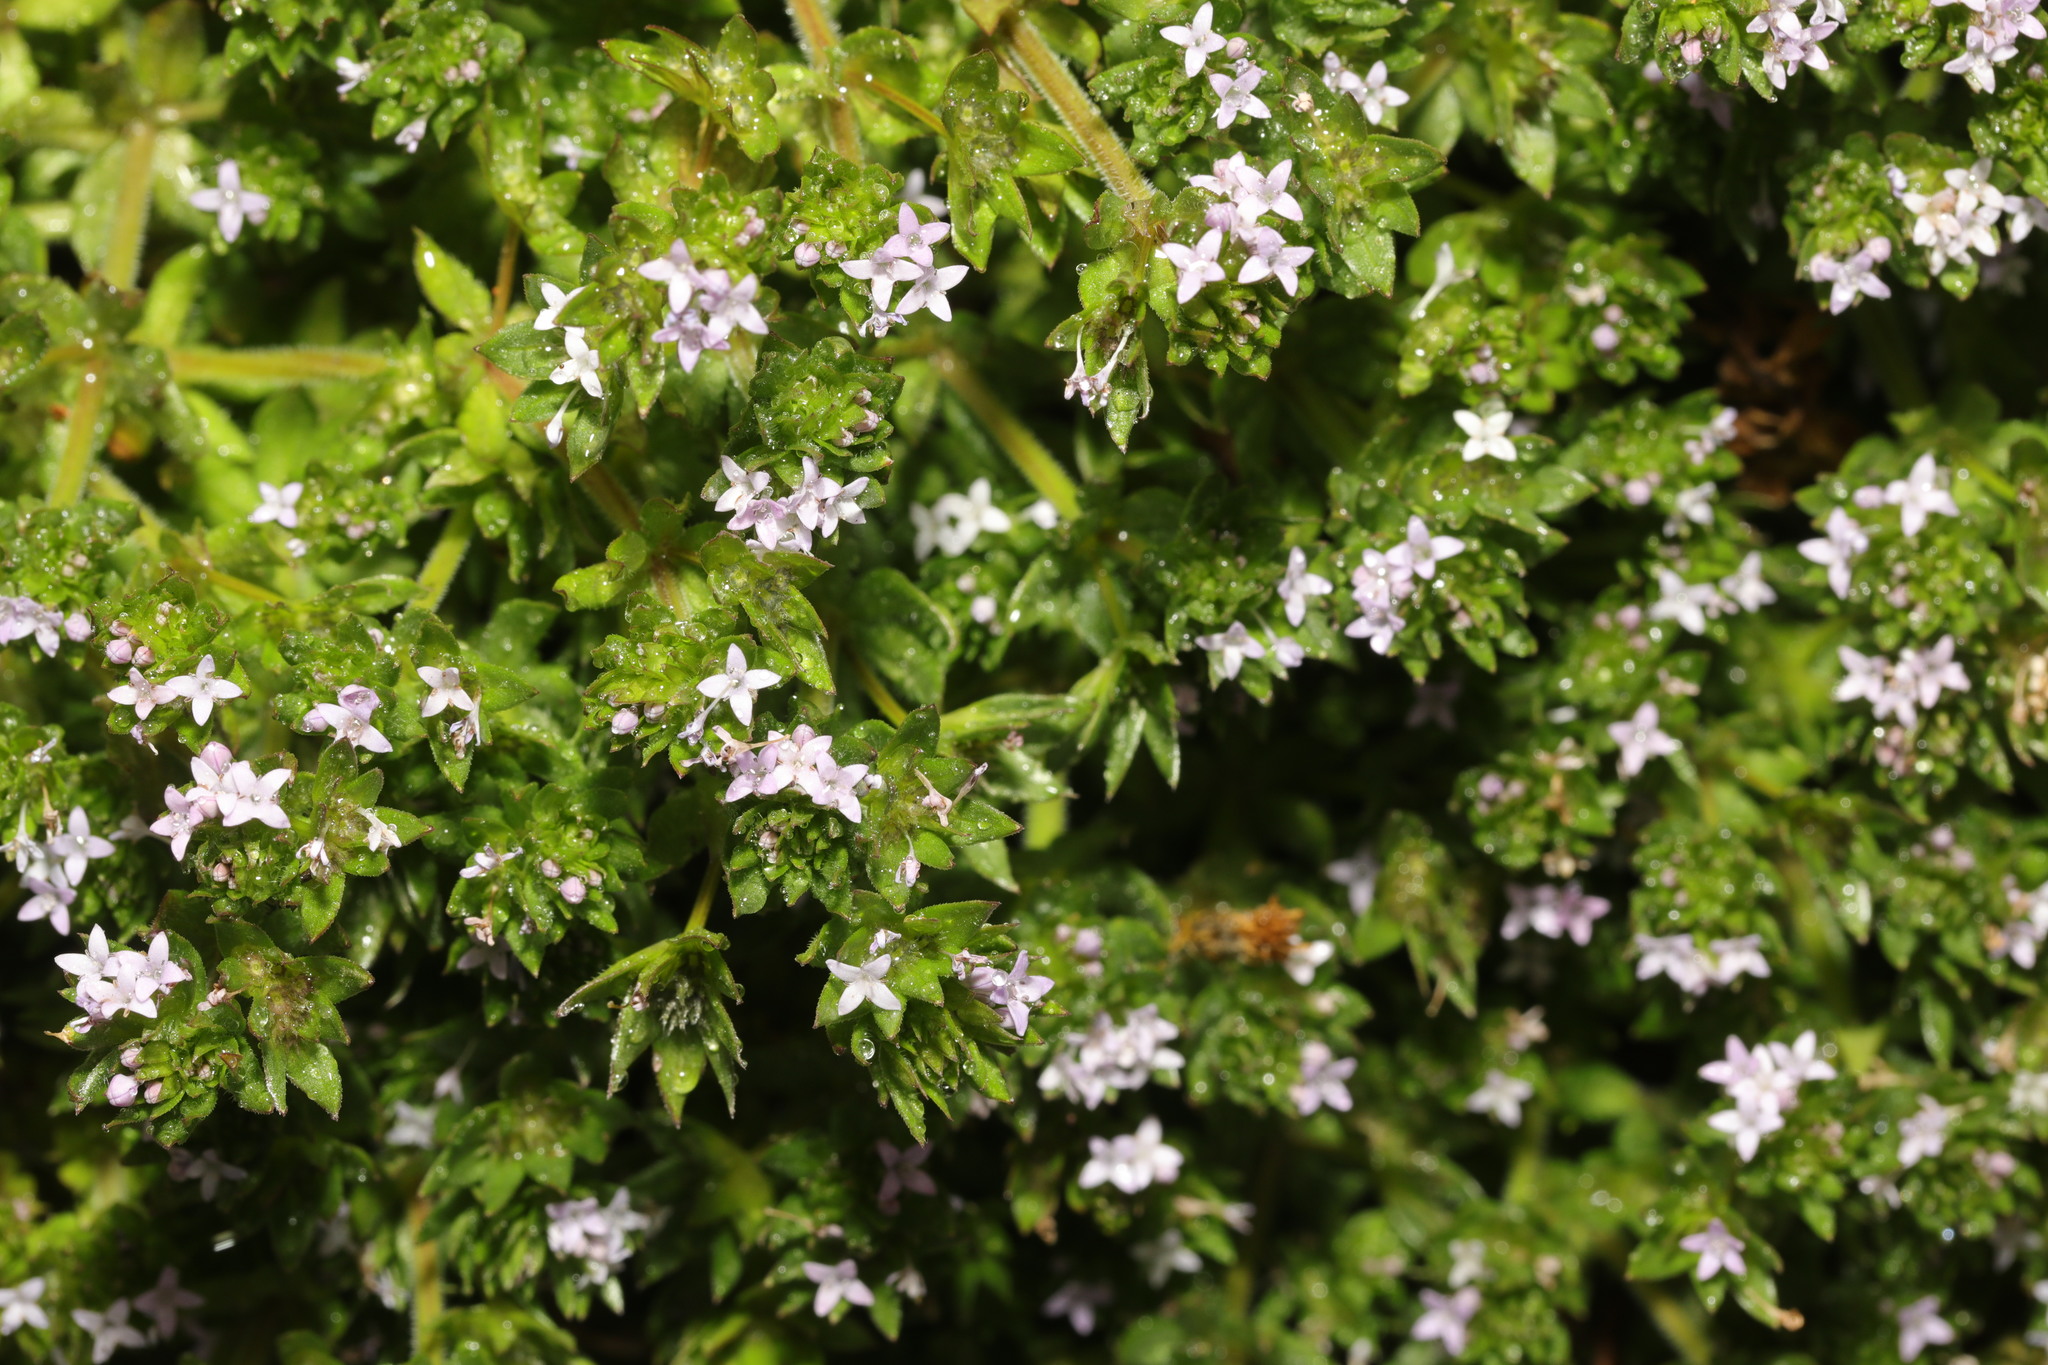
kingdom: Plantae
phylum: Tracheophyta
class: Magnoliopsida
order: Gentianales
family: Rubiaceae
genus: Sherardia
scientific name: Sherardia arvensis
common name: Field madder
